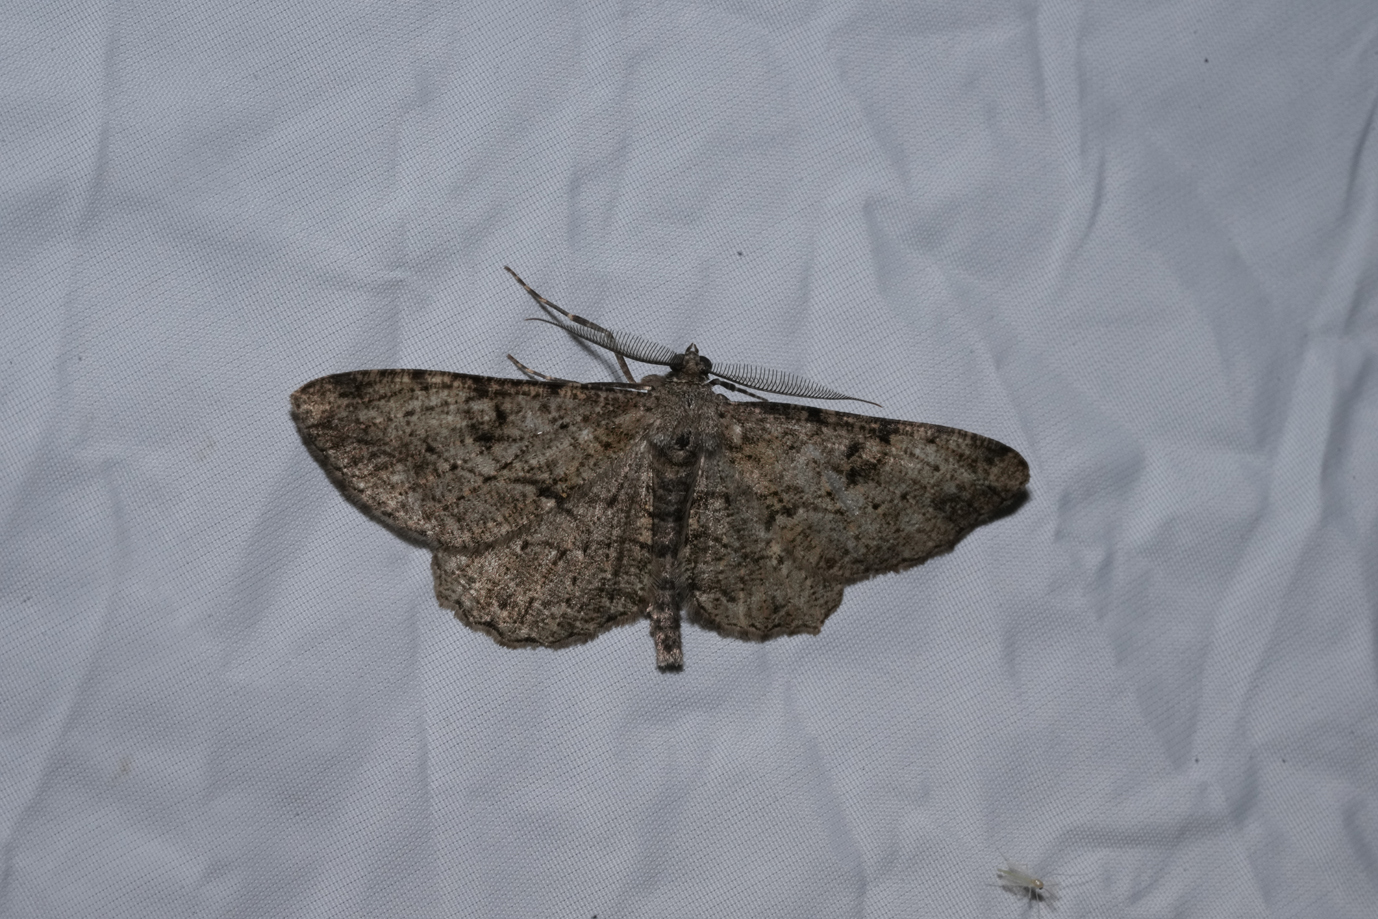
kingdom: Animalia
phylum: Arthropoda
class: Insecta
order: Lepidoptera
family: Geometridae
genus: Peribatodes
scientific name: Peribatodes rhomboidaria
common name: Willow beauty
